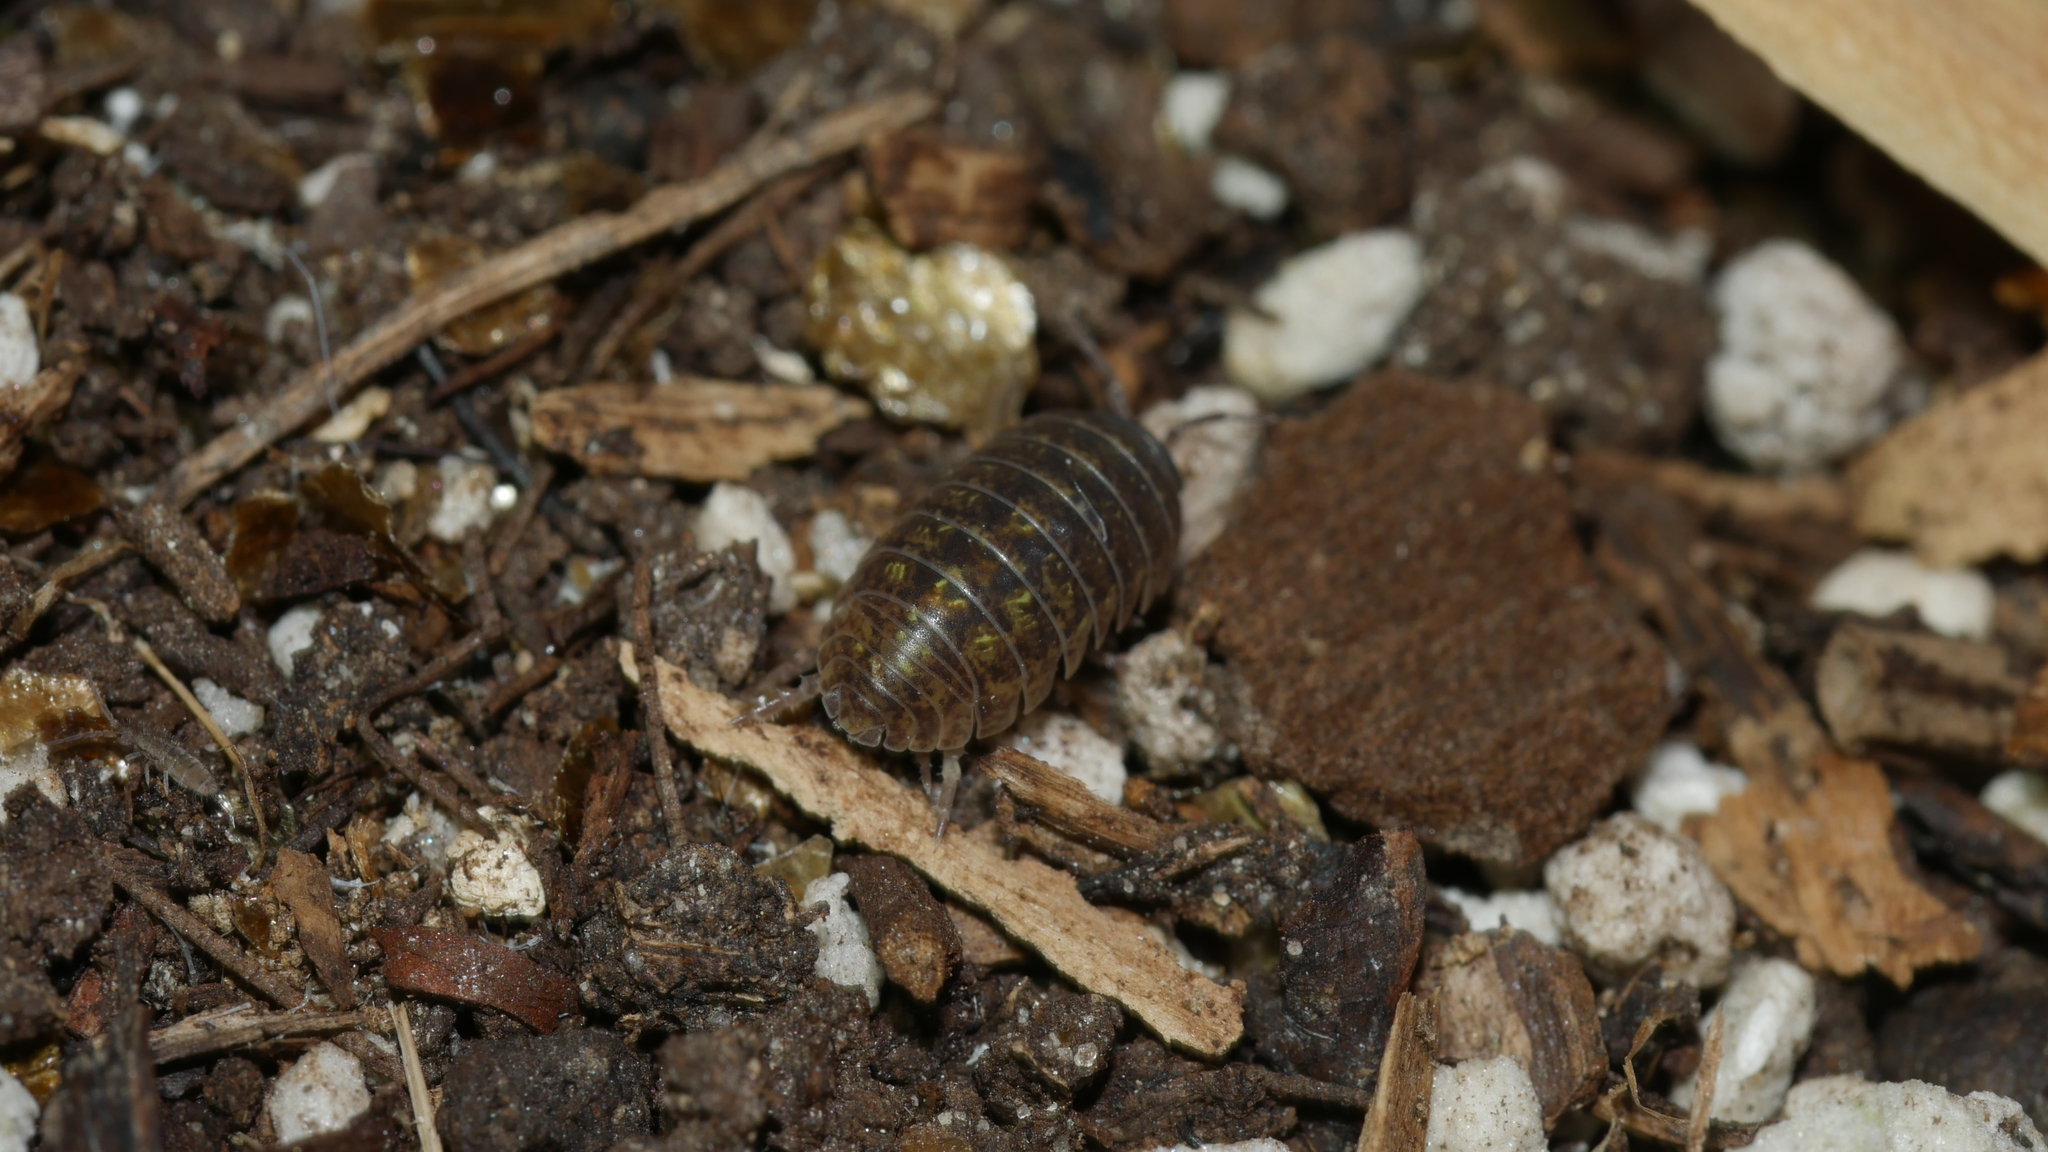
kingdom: Animalia
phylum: Arthropoda
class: Malacostraca
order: Isopoda
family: Armadillidiidae
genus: Armadillidium
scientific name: Armadillidium vulgare
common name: Common pill woodlouse
